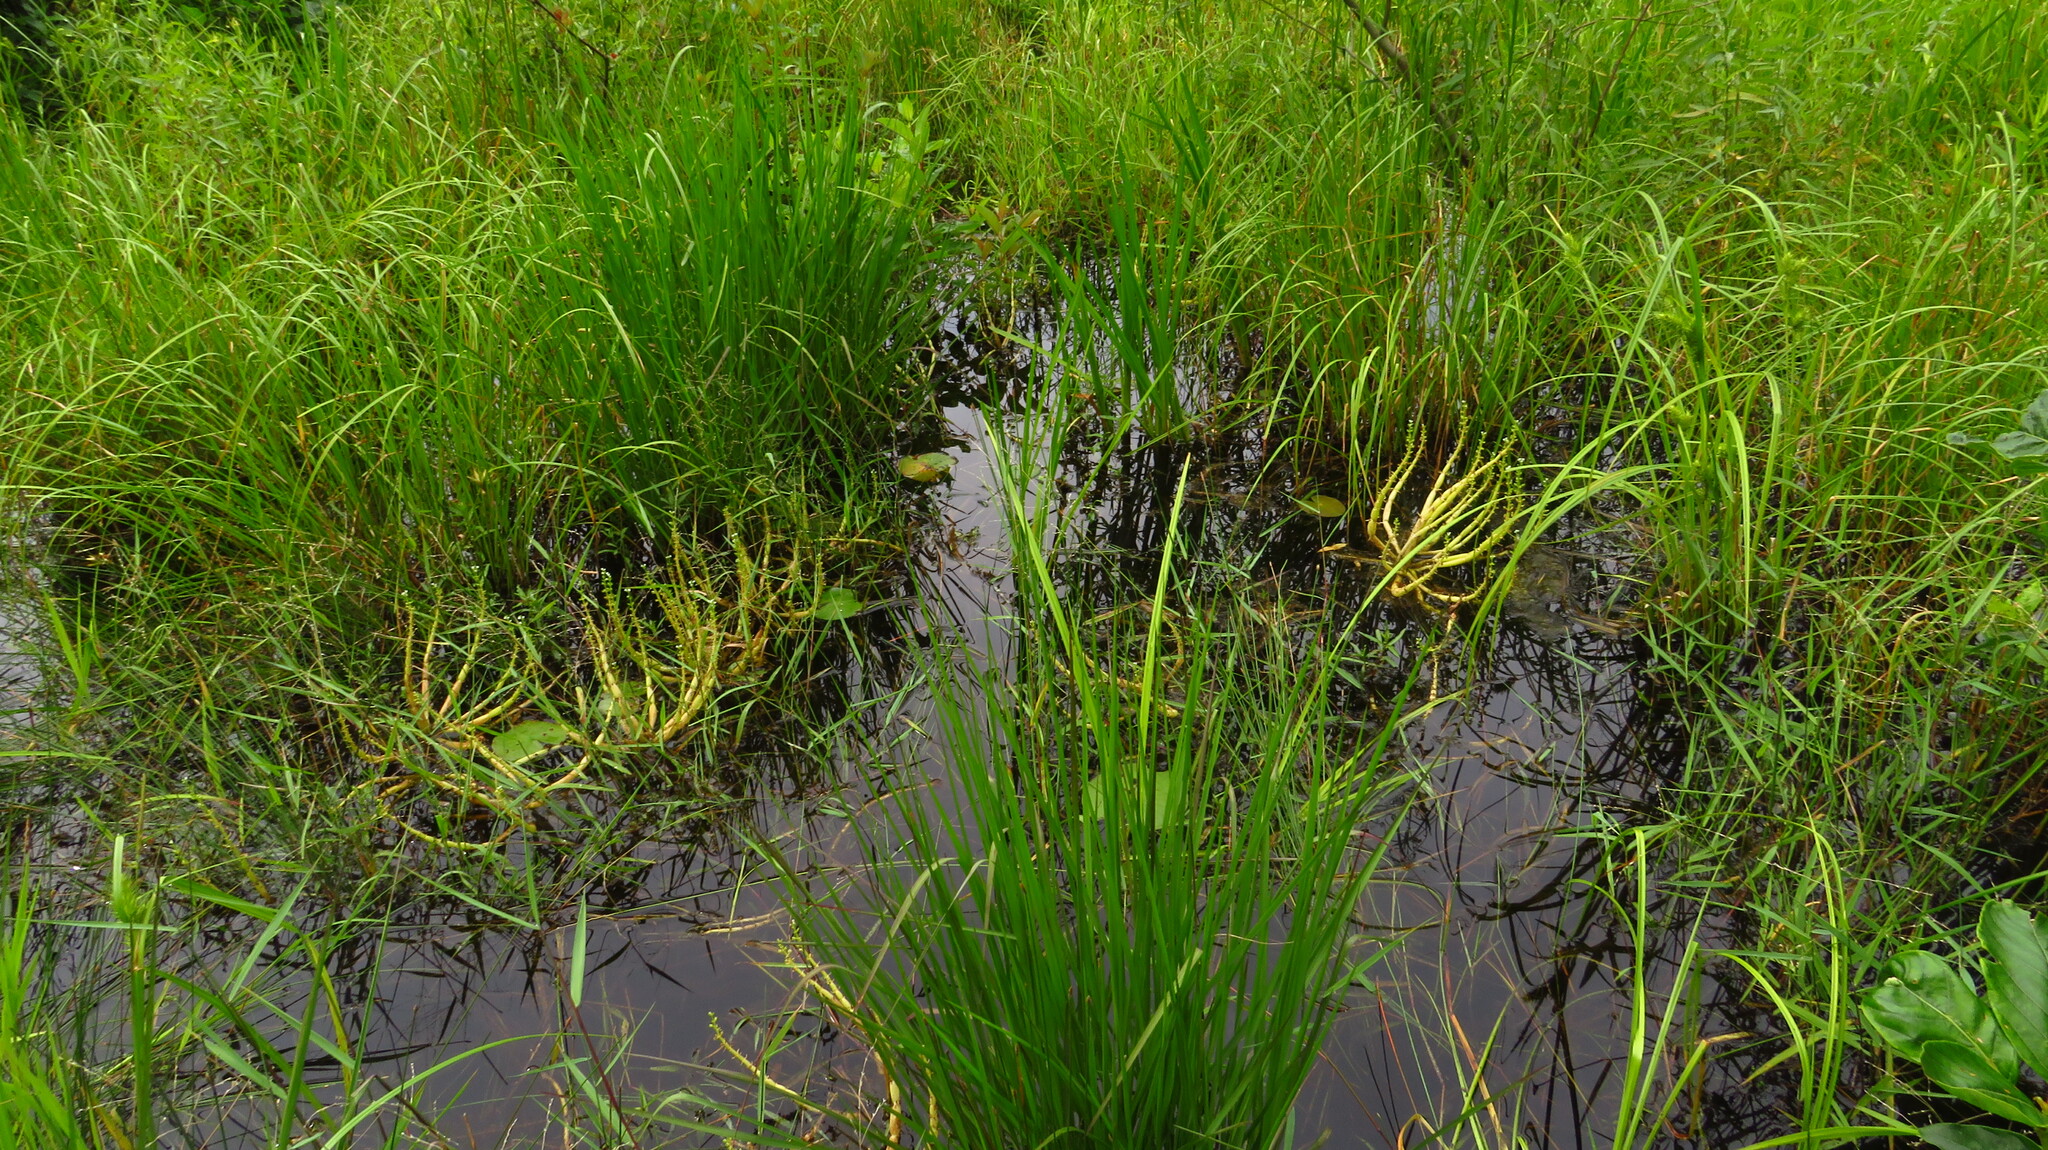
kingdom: Plantae
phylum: Tracheophyta
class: Magnoliopsida
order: Ericales
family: Primulaceae
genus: Hottonia
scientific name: Hottonia inflata
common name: American featherfoil
